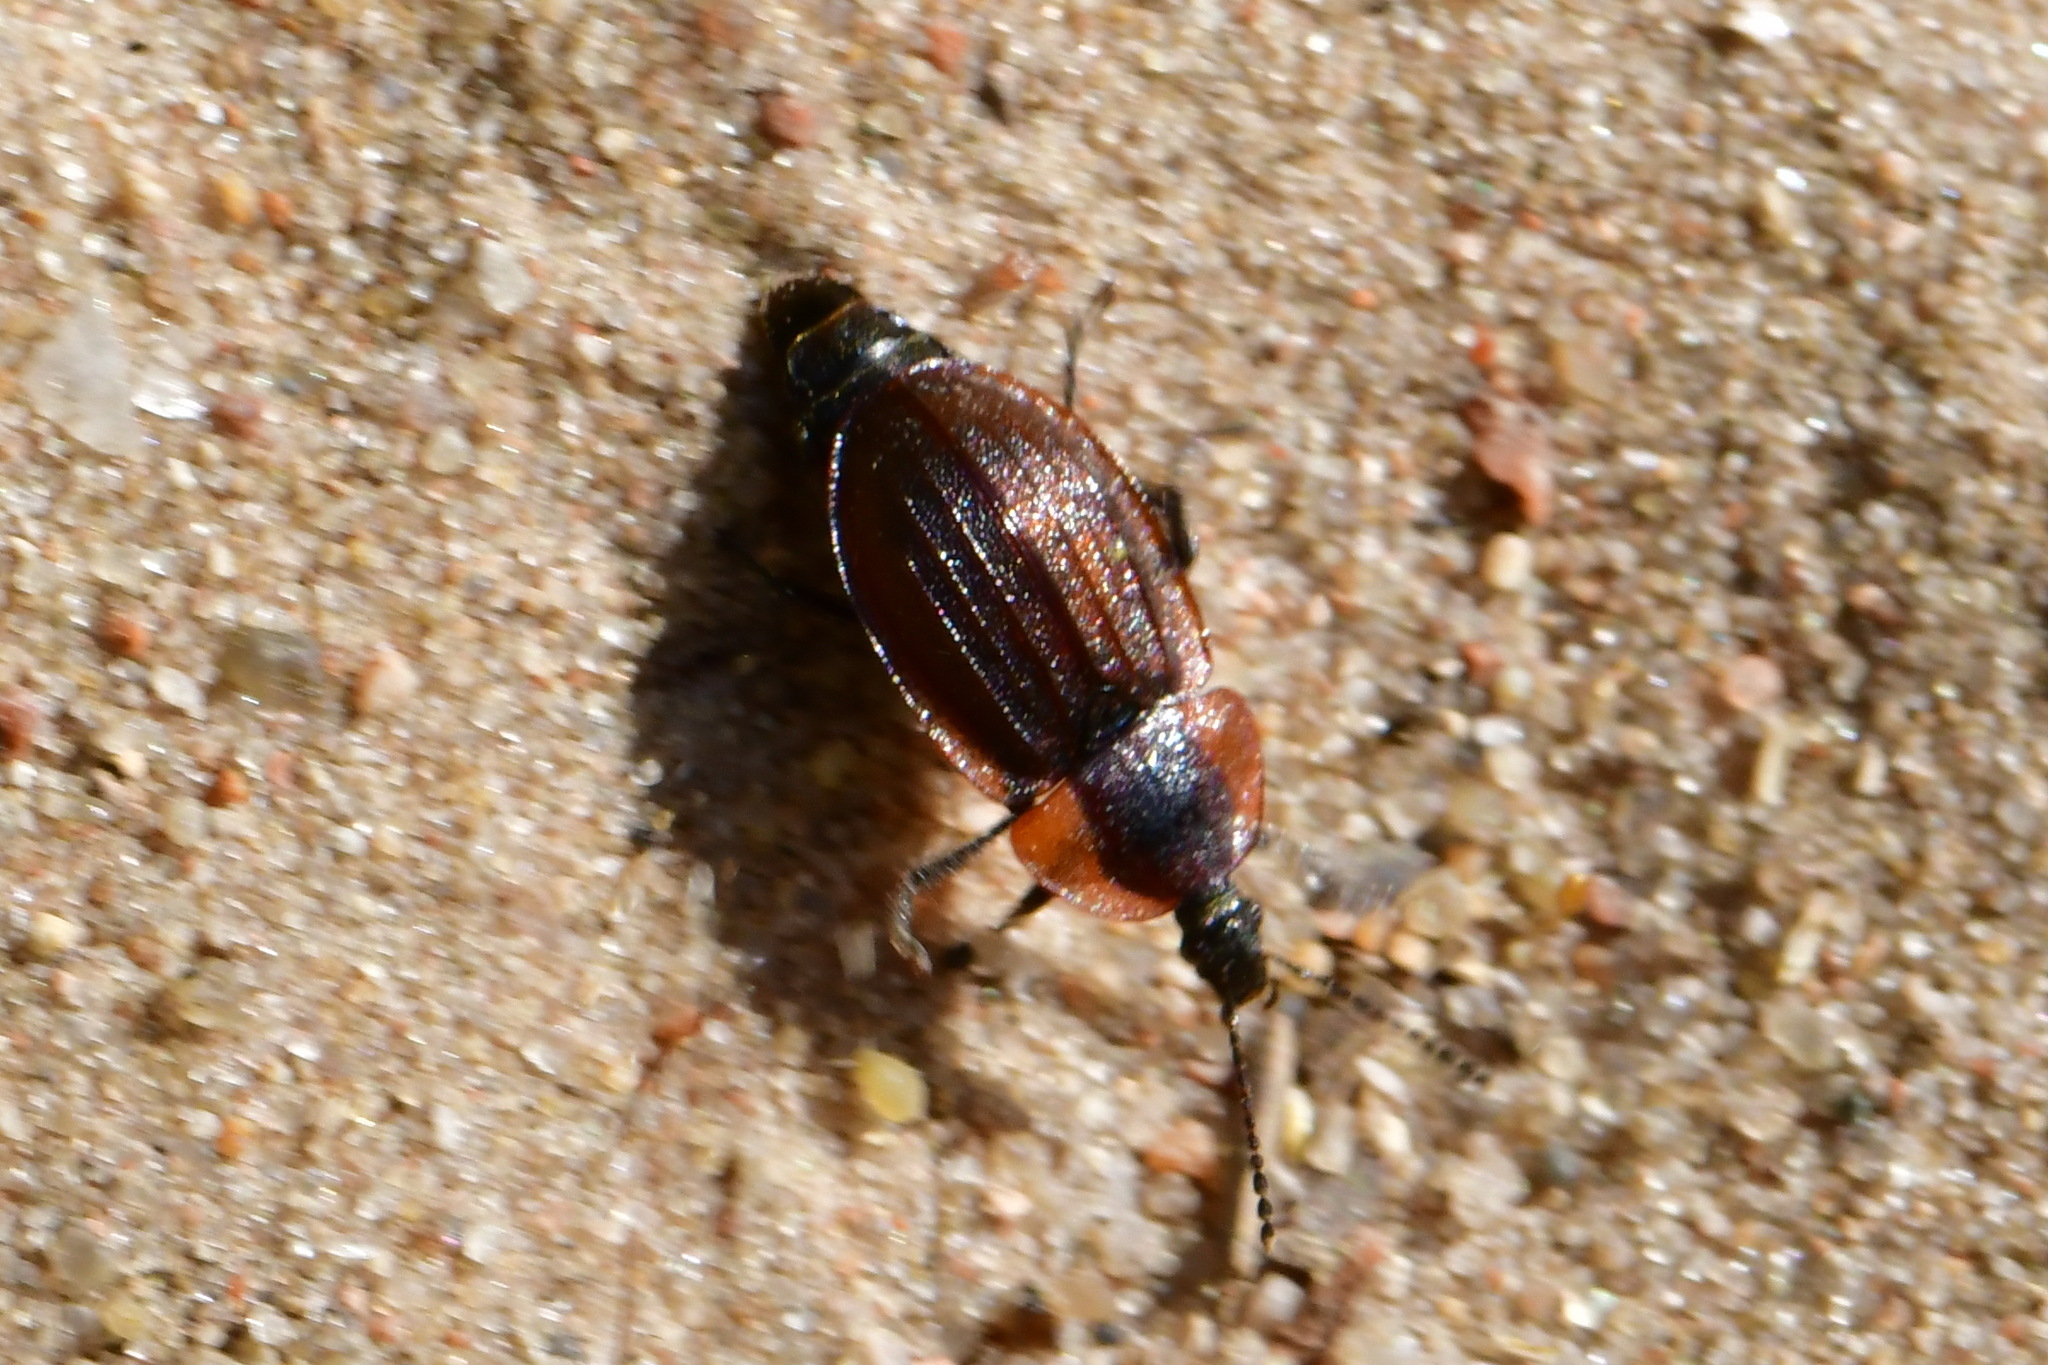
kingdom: Animalia
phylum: Arthropoda
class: Insecta
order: Coleoptera
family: Staphylinidae
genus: Silpha
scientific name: Silpha atrata
